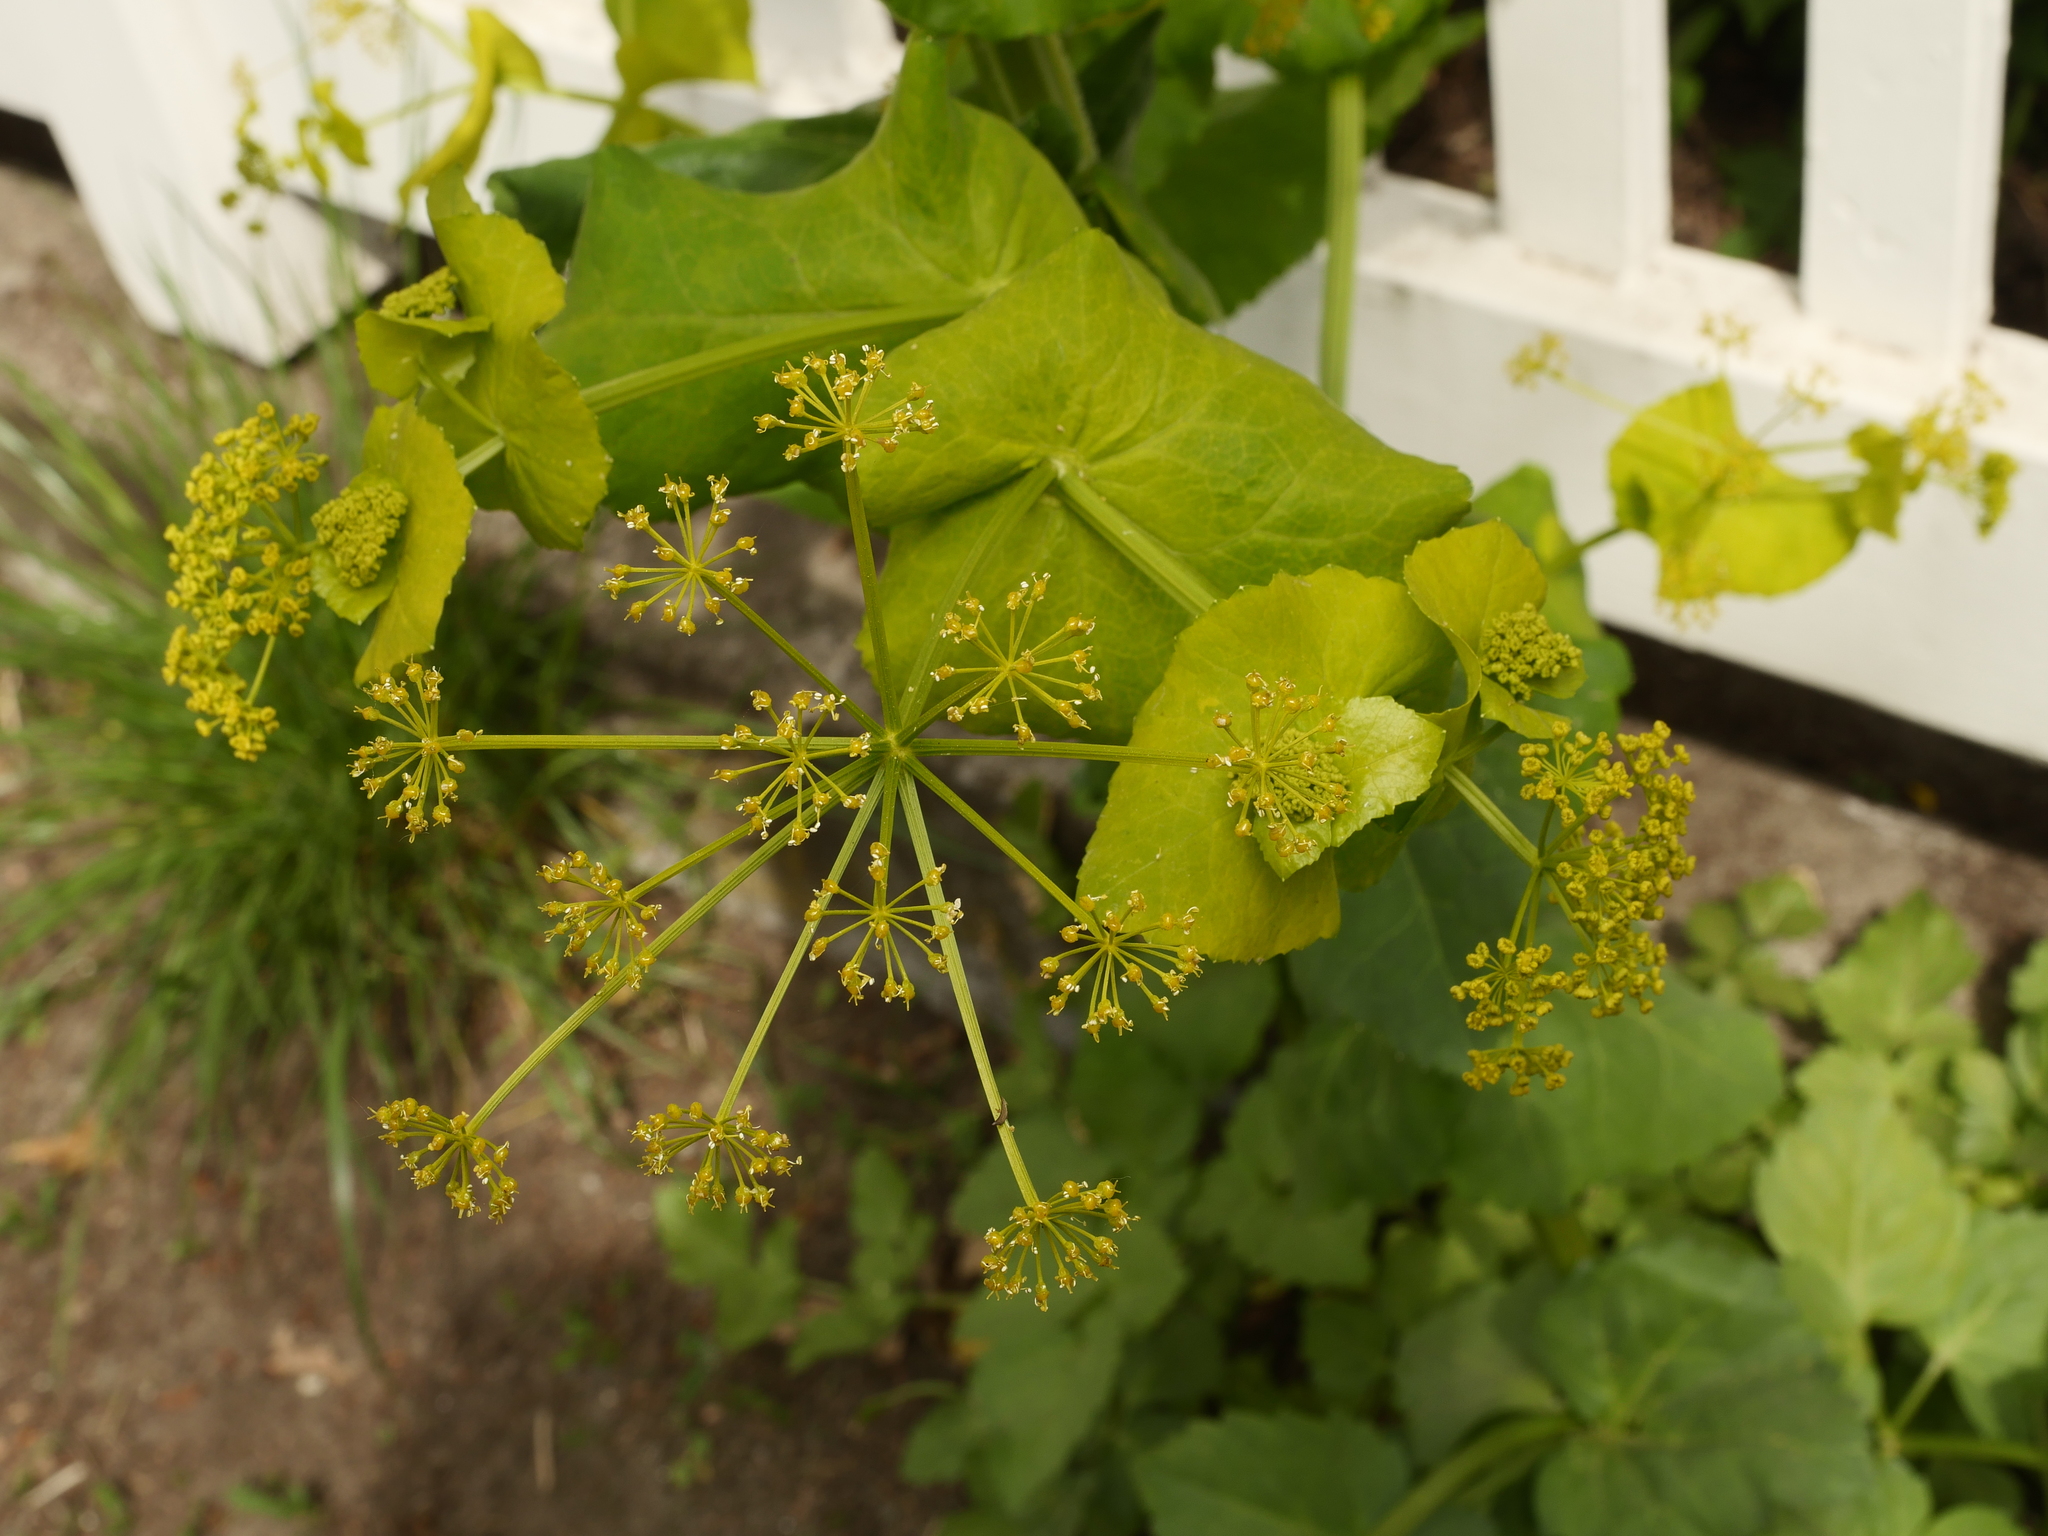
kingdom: Plantae
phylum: Tracheophyta
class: Magnoliopsida
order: Apiales
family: Apiaceae
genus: Smyrnium
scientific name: Smyrnium perfoliatum
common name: Perfoliate alexanders
